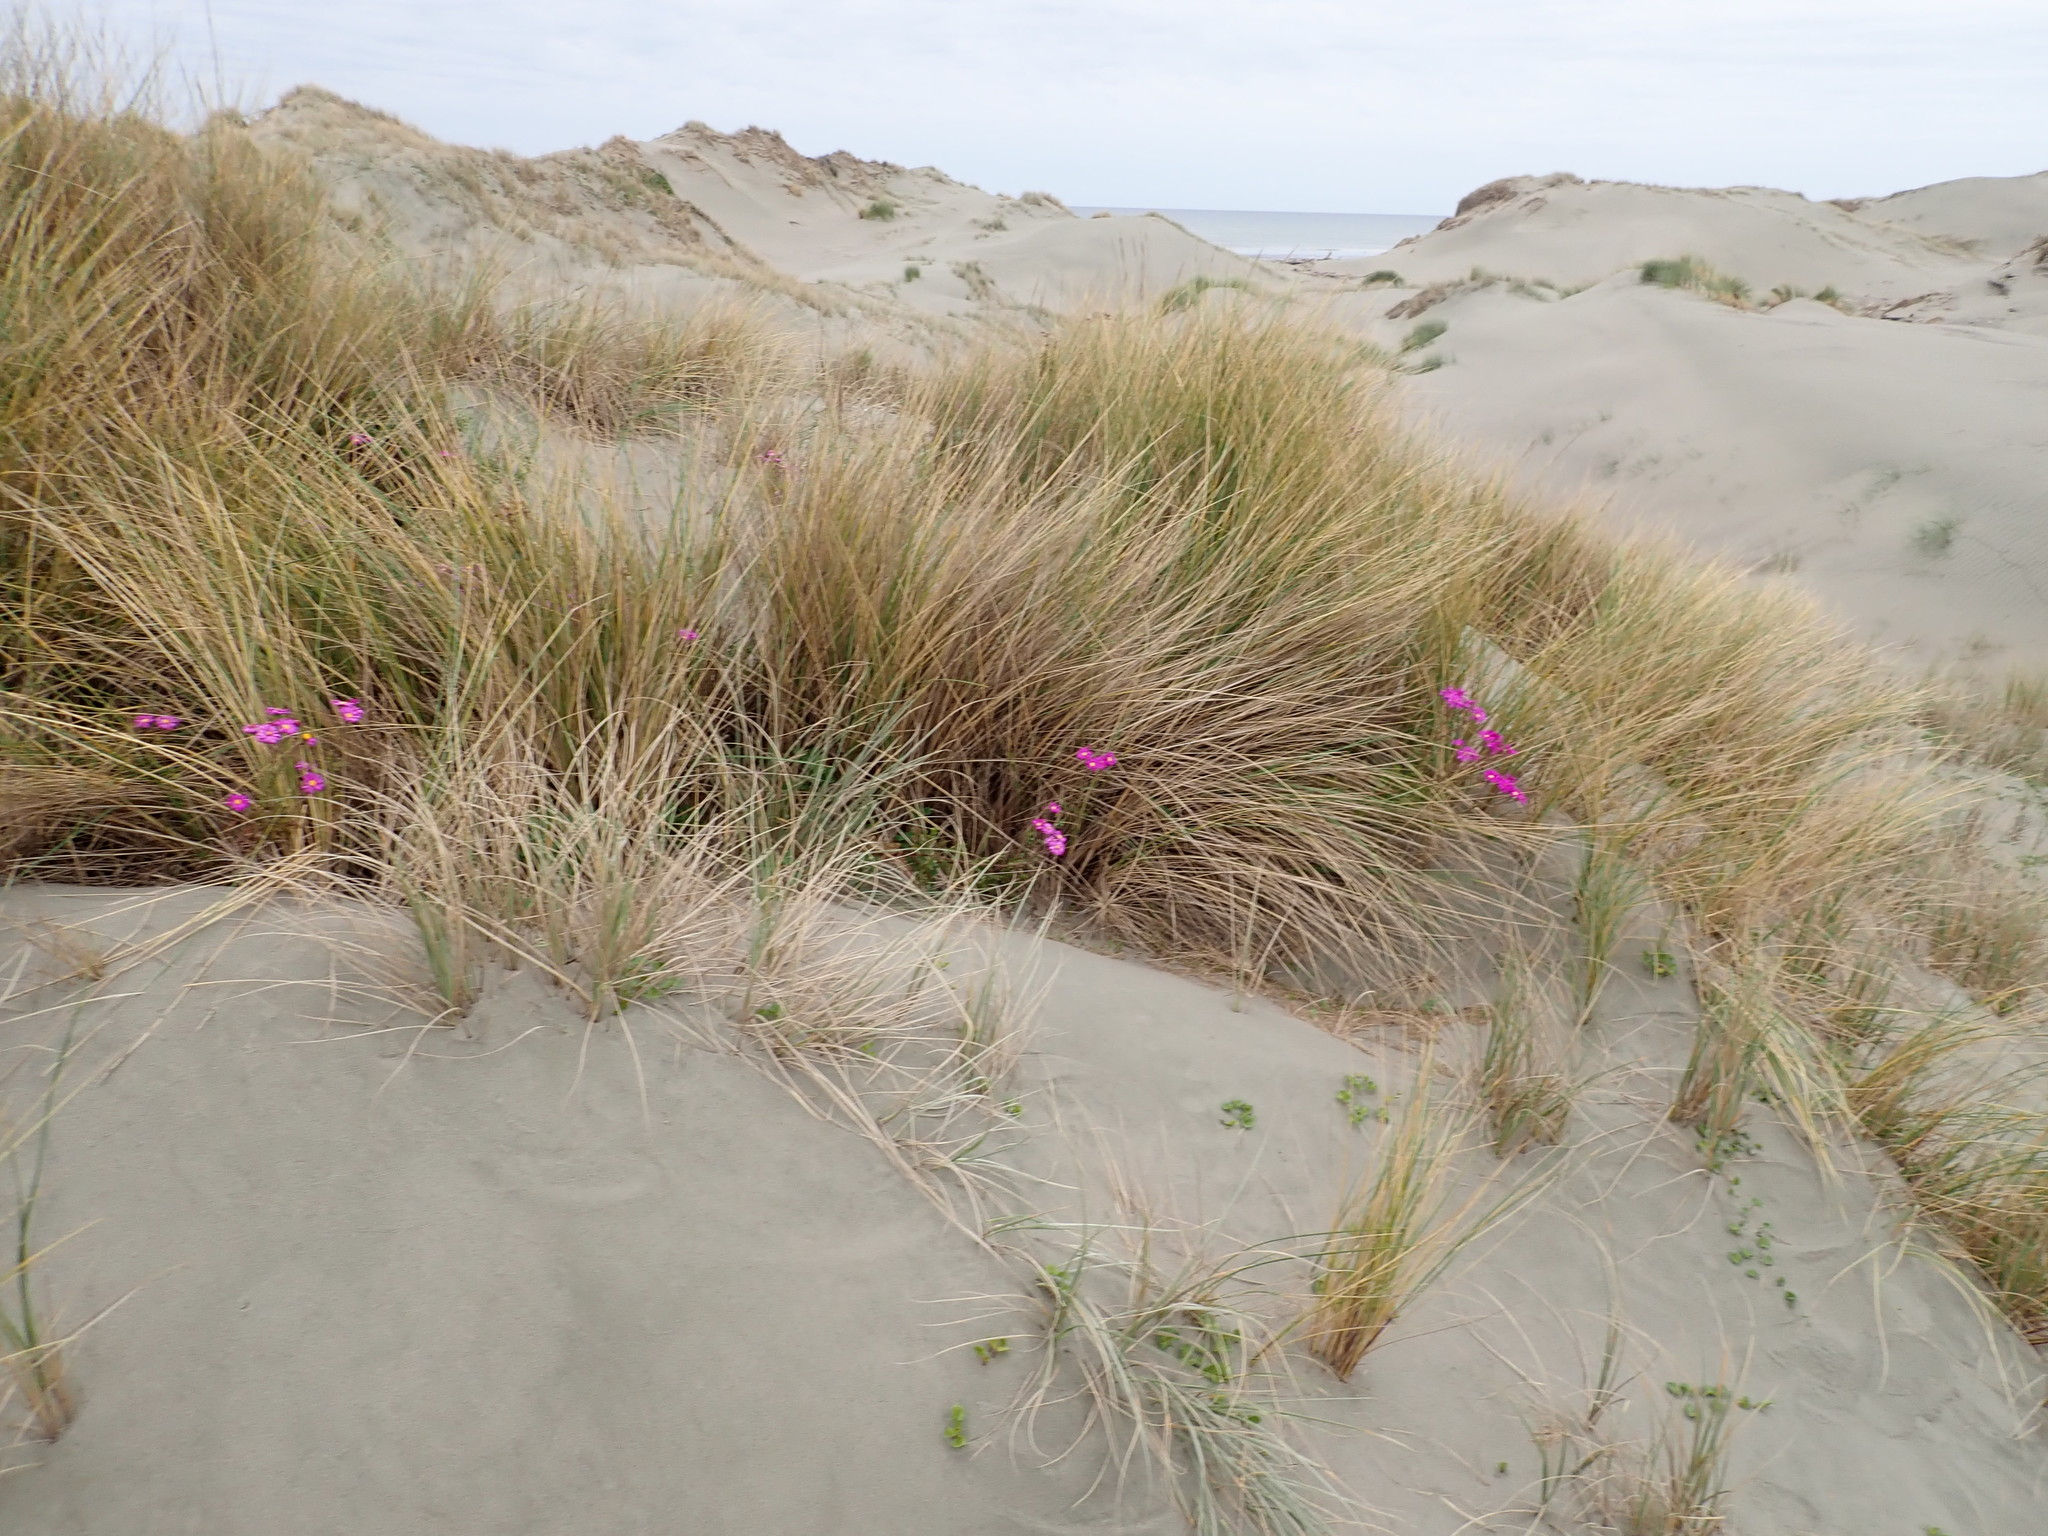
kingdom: Plantae
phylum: Tracheophyta
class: Liliopsida
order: Poales
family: Poaceae
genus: Calamagrostis
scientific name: Calamagrostis arenaria
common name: European beachgrass
